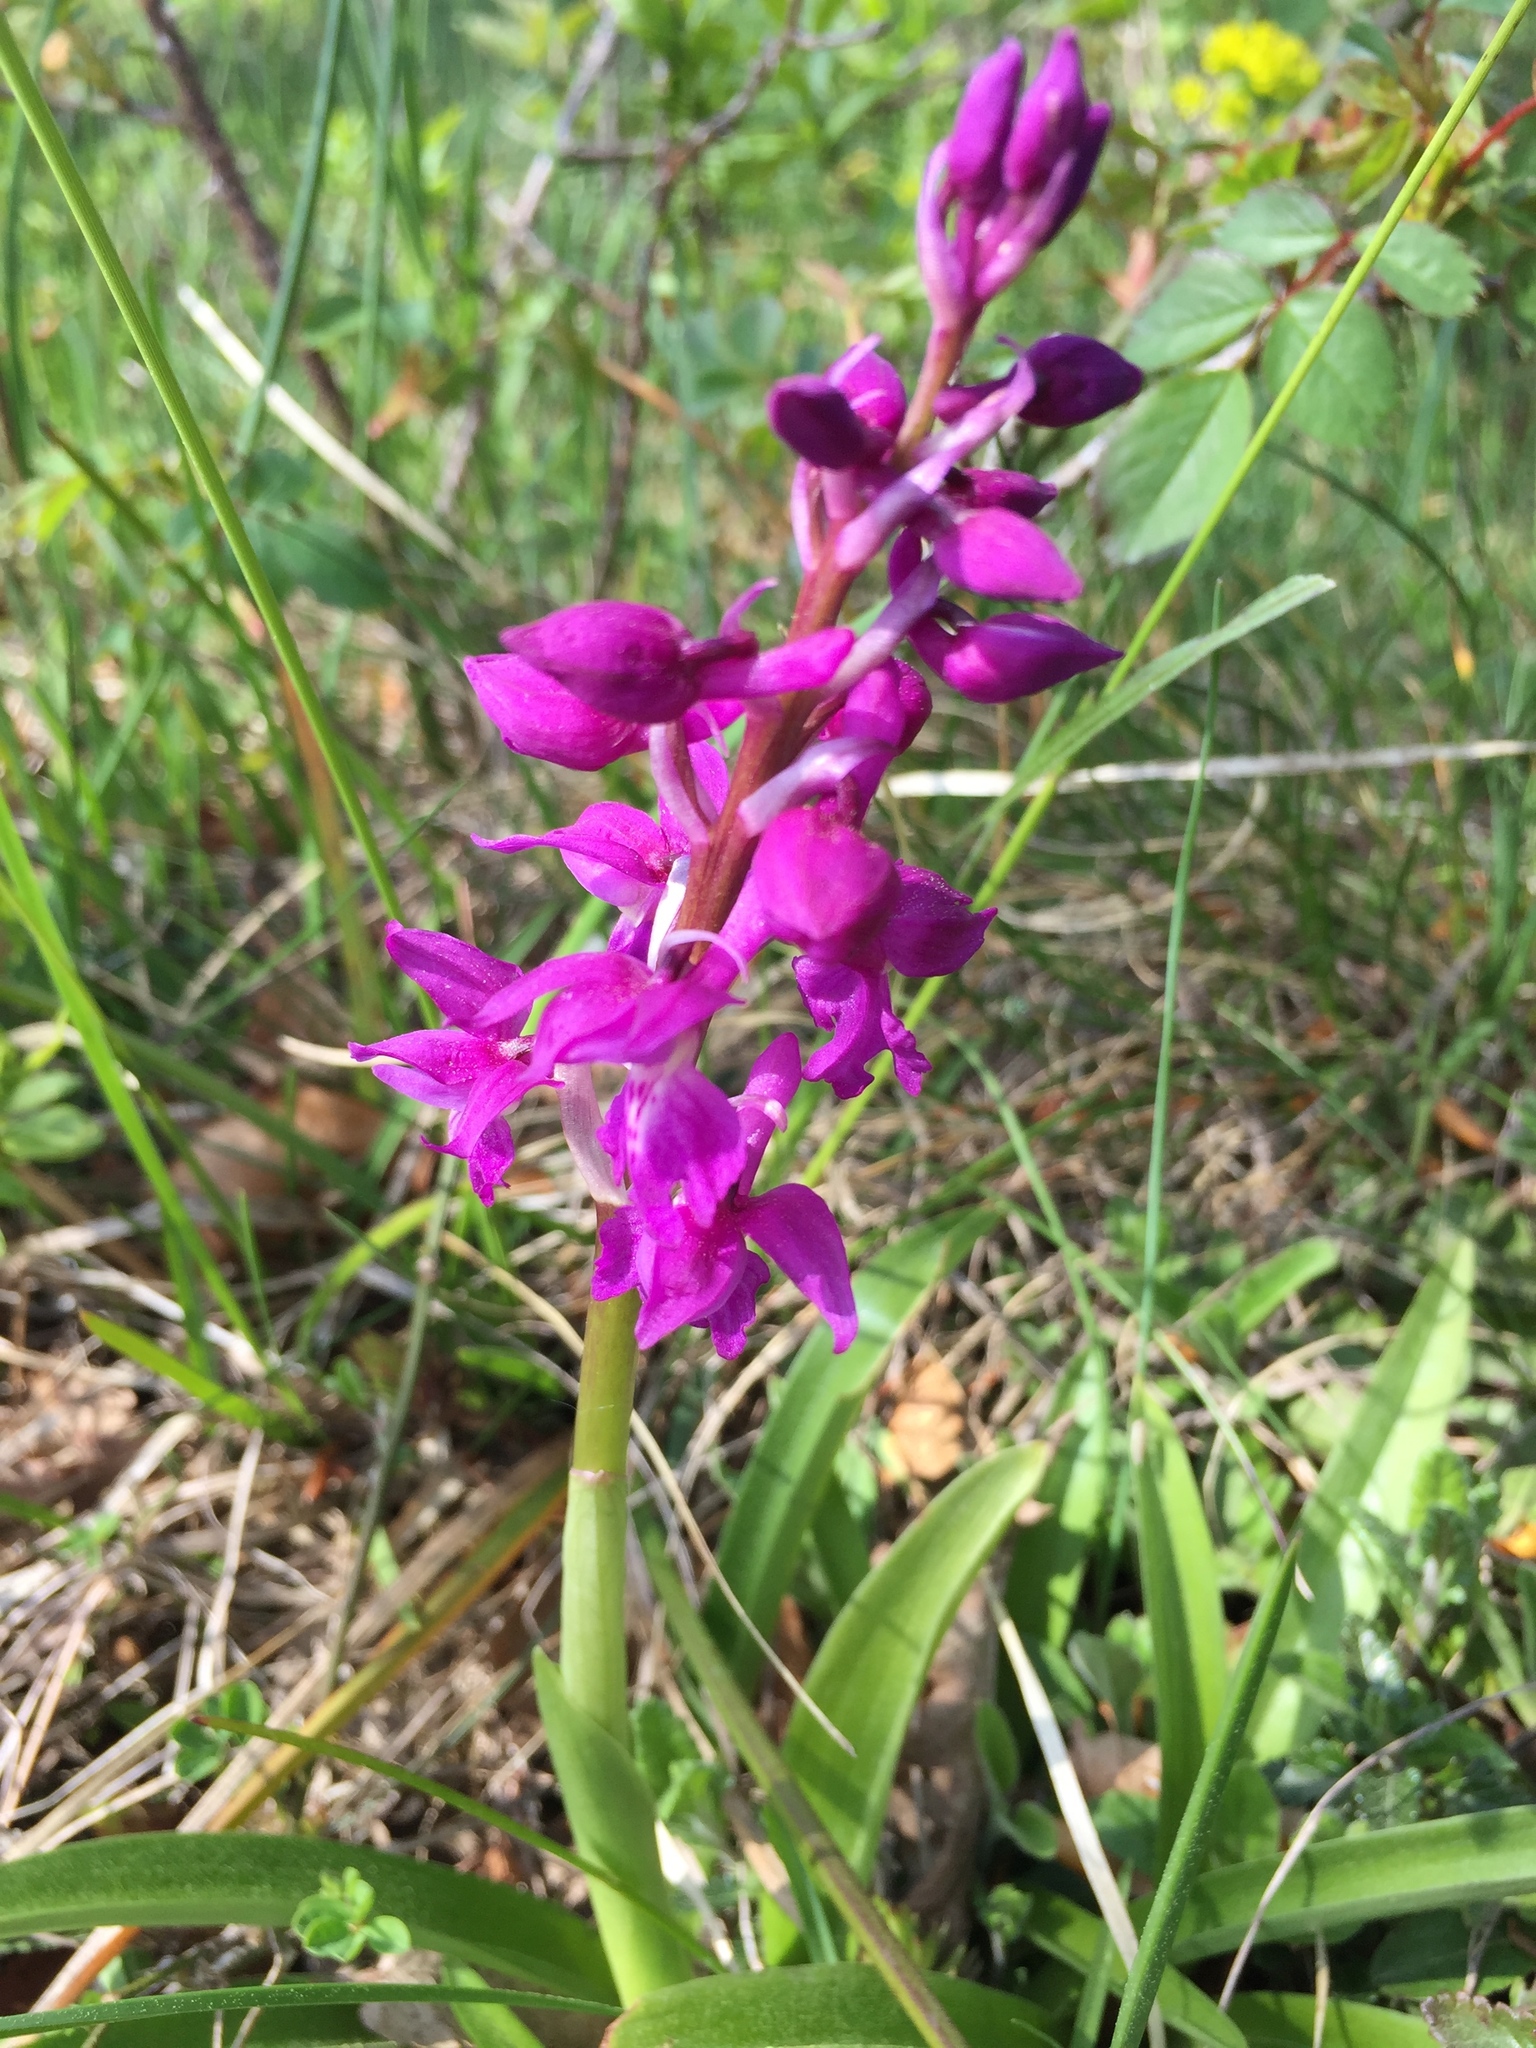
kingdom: Plantae
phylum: Tracheophyta
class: Liliopsida
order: Asparagales
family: Orchidaceae
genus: Anacamptis
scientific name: Anacamptis morio
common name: Green-winged orchid
